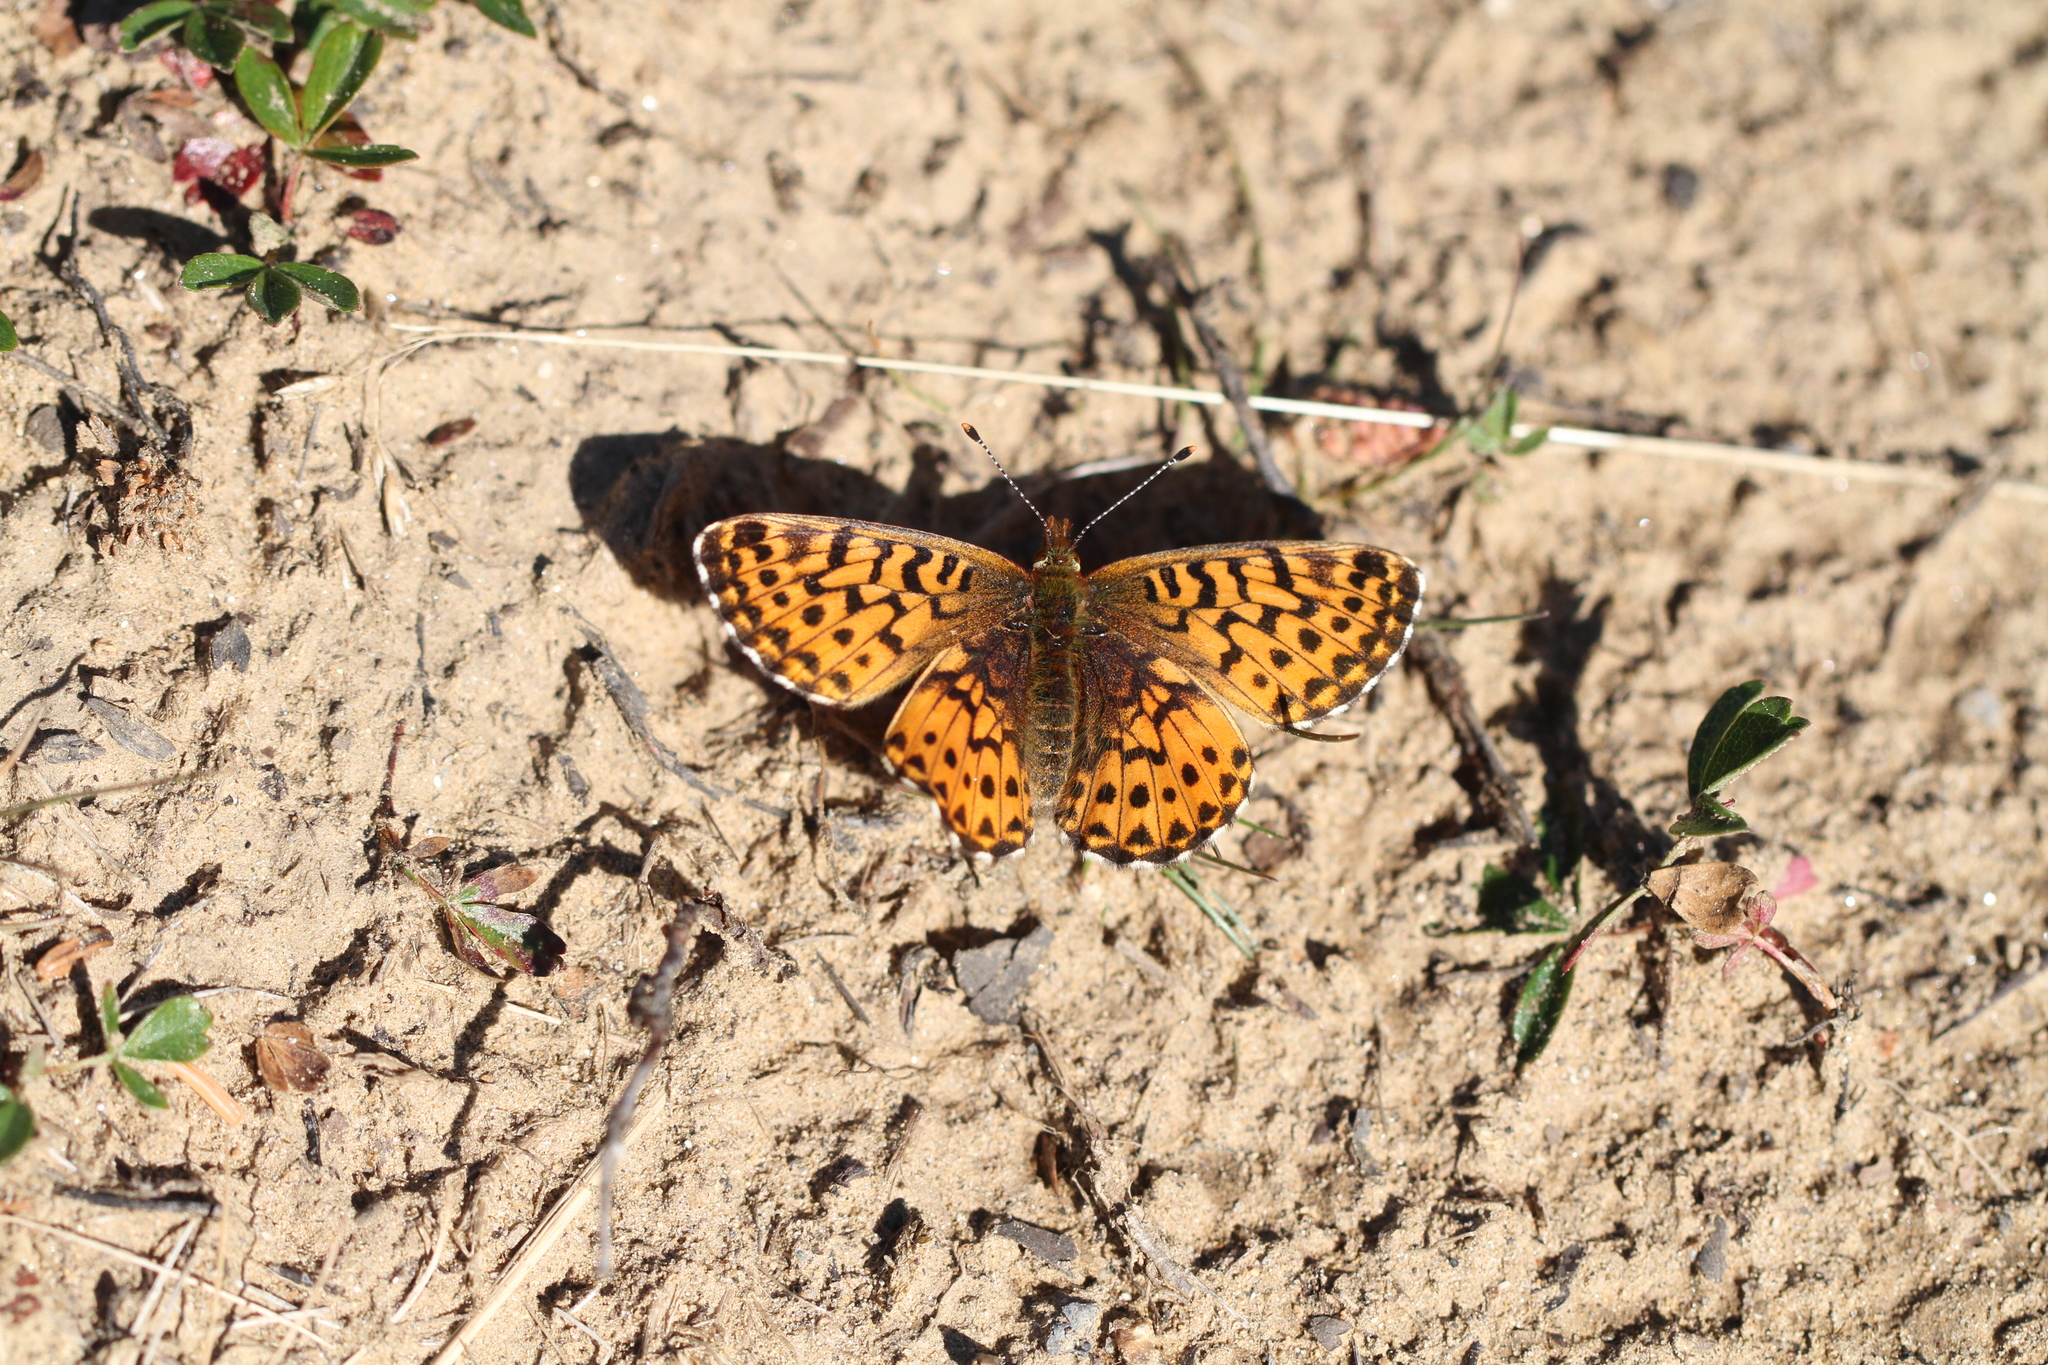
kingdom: Animalia
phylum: Arthropoda
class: Insecta
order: Lepidoptera
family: Nymphalidae
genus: Clossiana
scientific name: Clossiana chariclea
